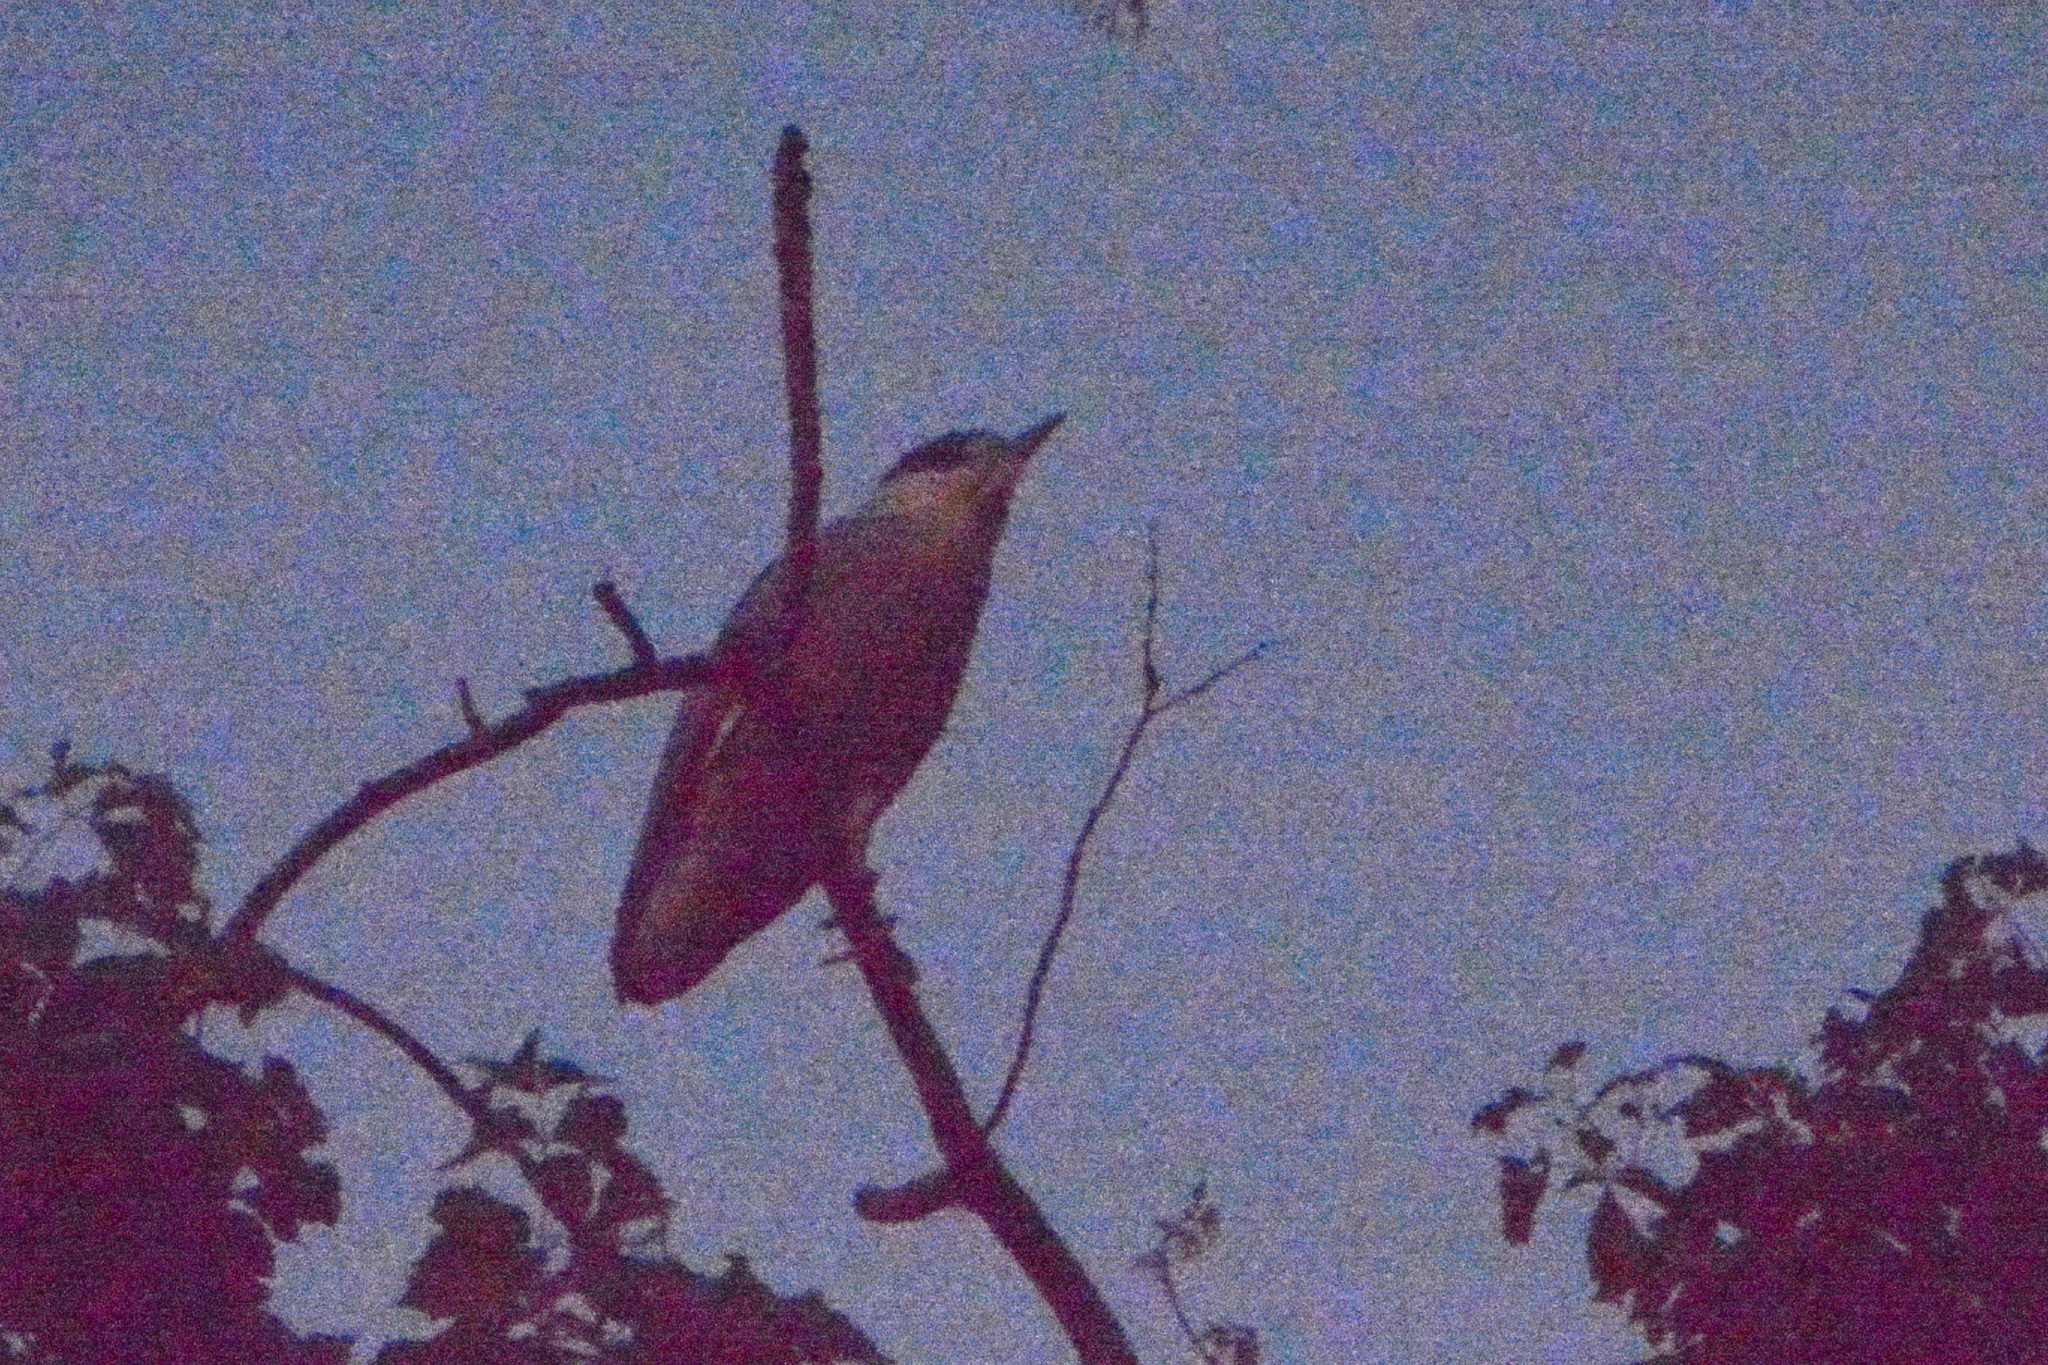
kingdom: Animalia
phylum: Chordata
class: Aves
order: Pelecaniformes
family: Ardeidae
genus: Nycticorax
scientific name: Nycticorax nycticorax
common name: Black-crowned night heron
